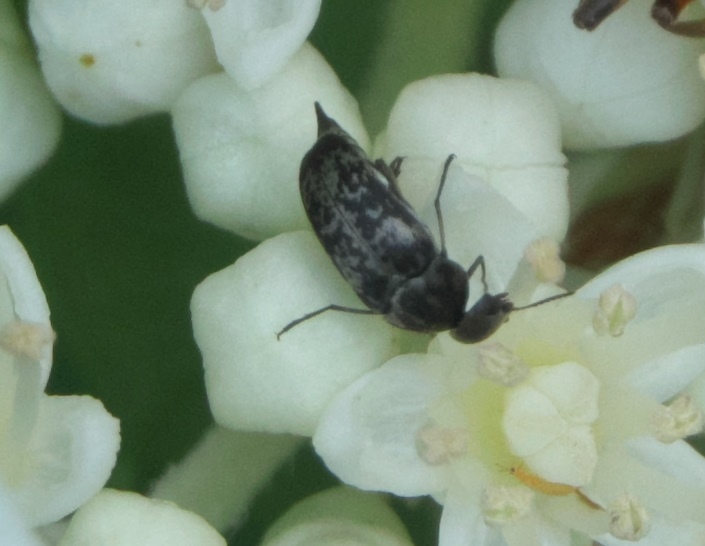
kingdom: Animalia
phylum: Arthropoda
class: Insecta
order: Coleoptera
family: Mordellidae
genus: Mordella
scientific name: Mordella marginata
